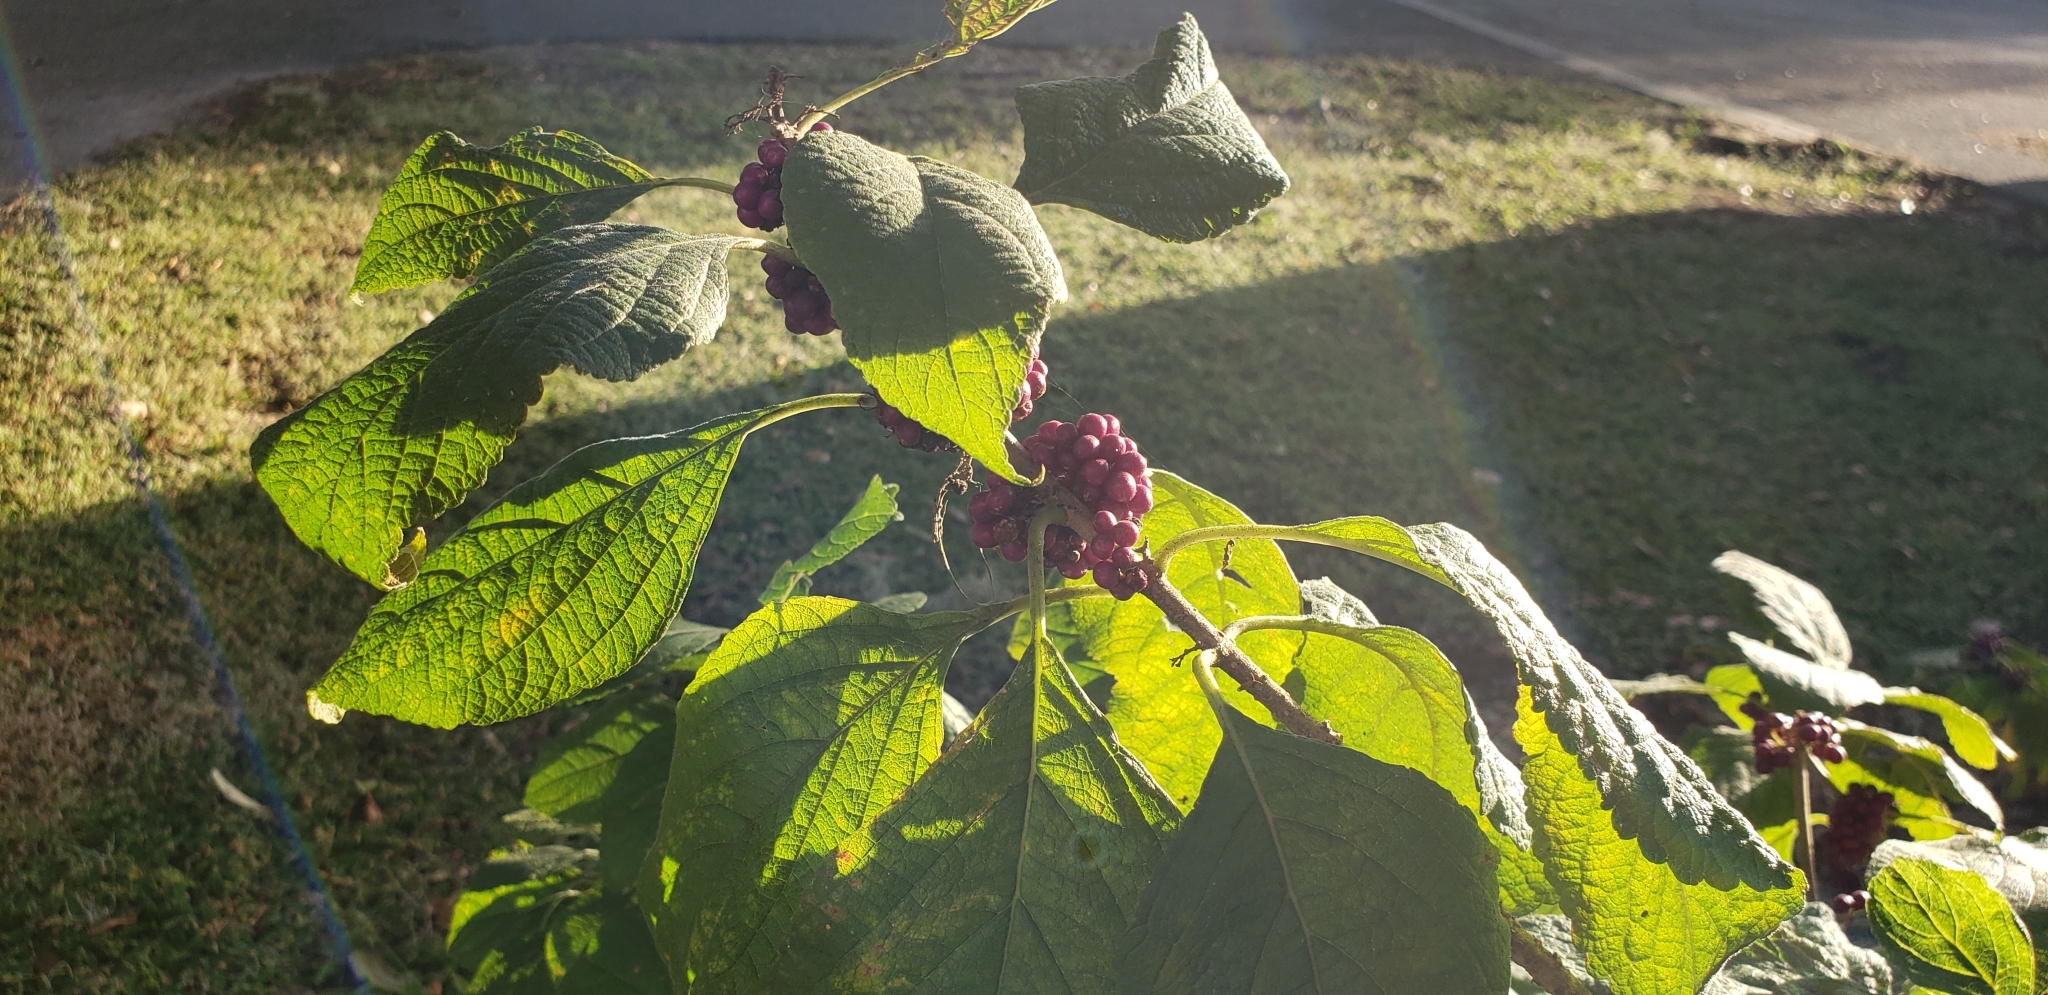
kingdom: Plantae
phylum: Tracheophyta
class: Magnoliopsida
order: Lamiales
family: Lamiaceae
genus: Callicarpa
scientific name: Callicarpa americana
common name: American beautyberry
